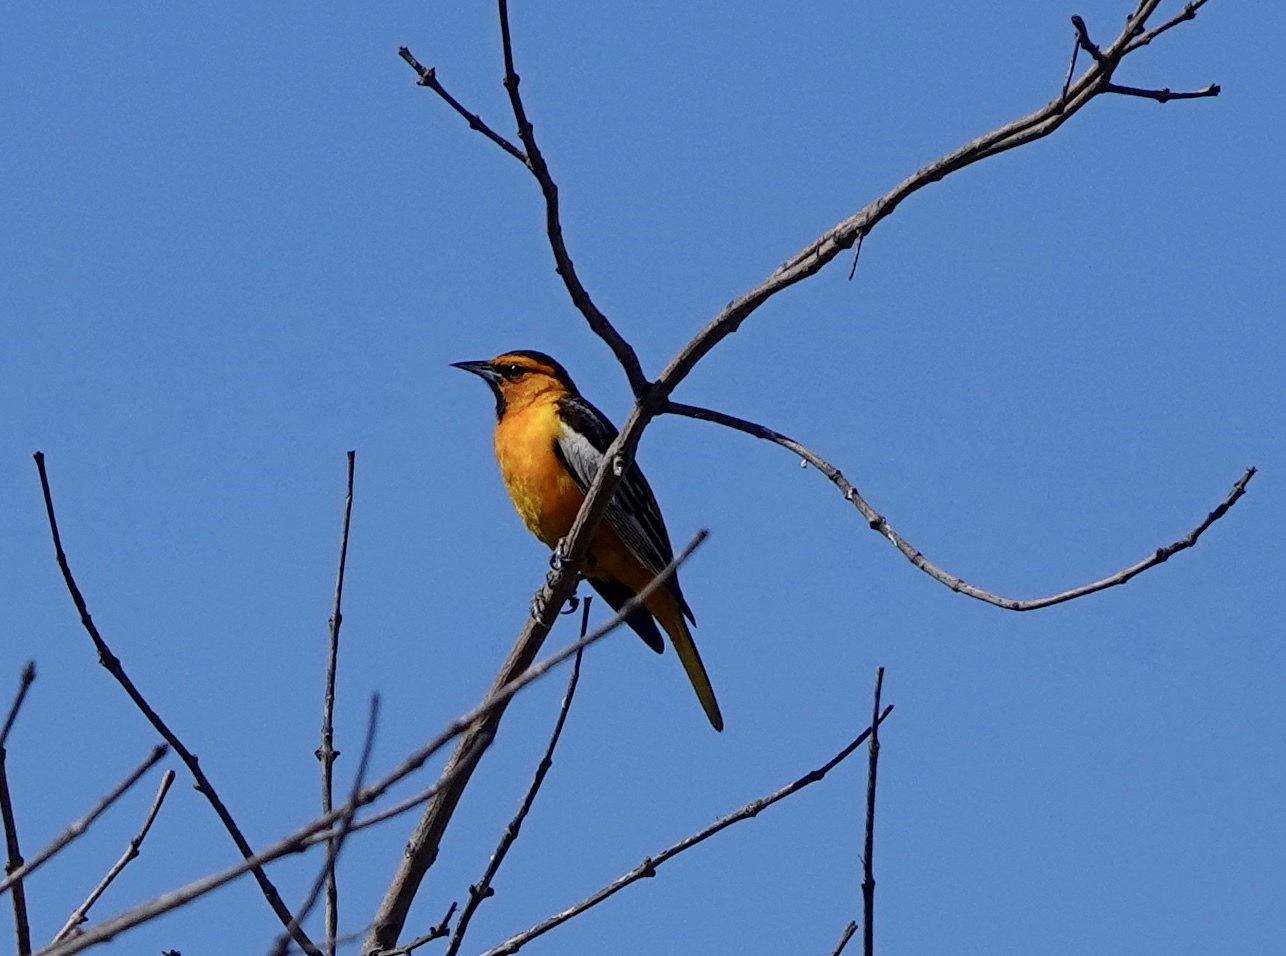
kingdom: Animalia
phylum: Chordata
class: Aves
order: Passeriformes
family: Icteridae
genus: Icterus
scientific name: Icterus bullockii
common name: Bullock's oriole
